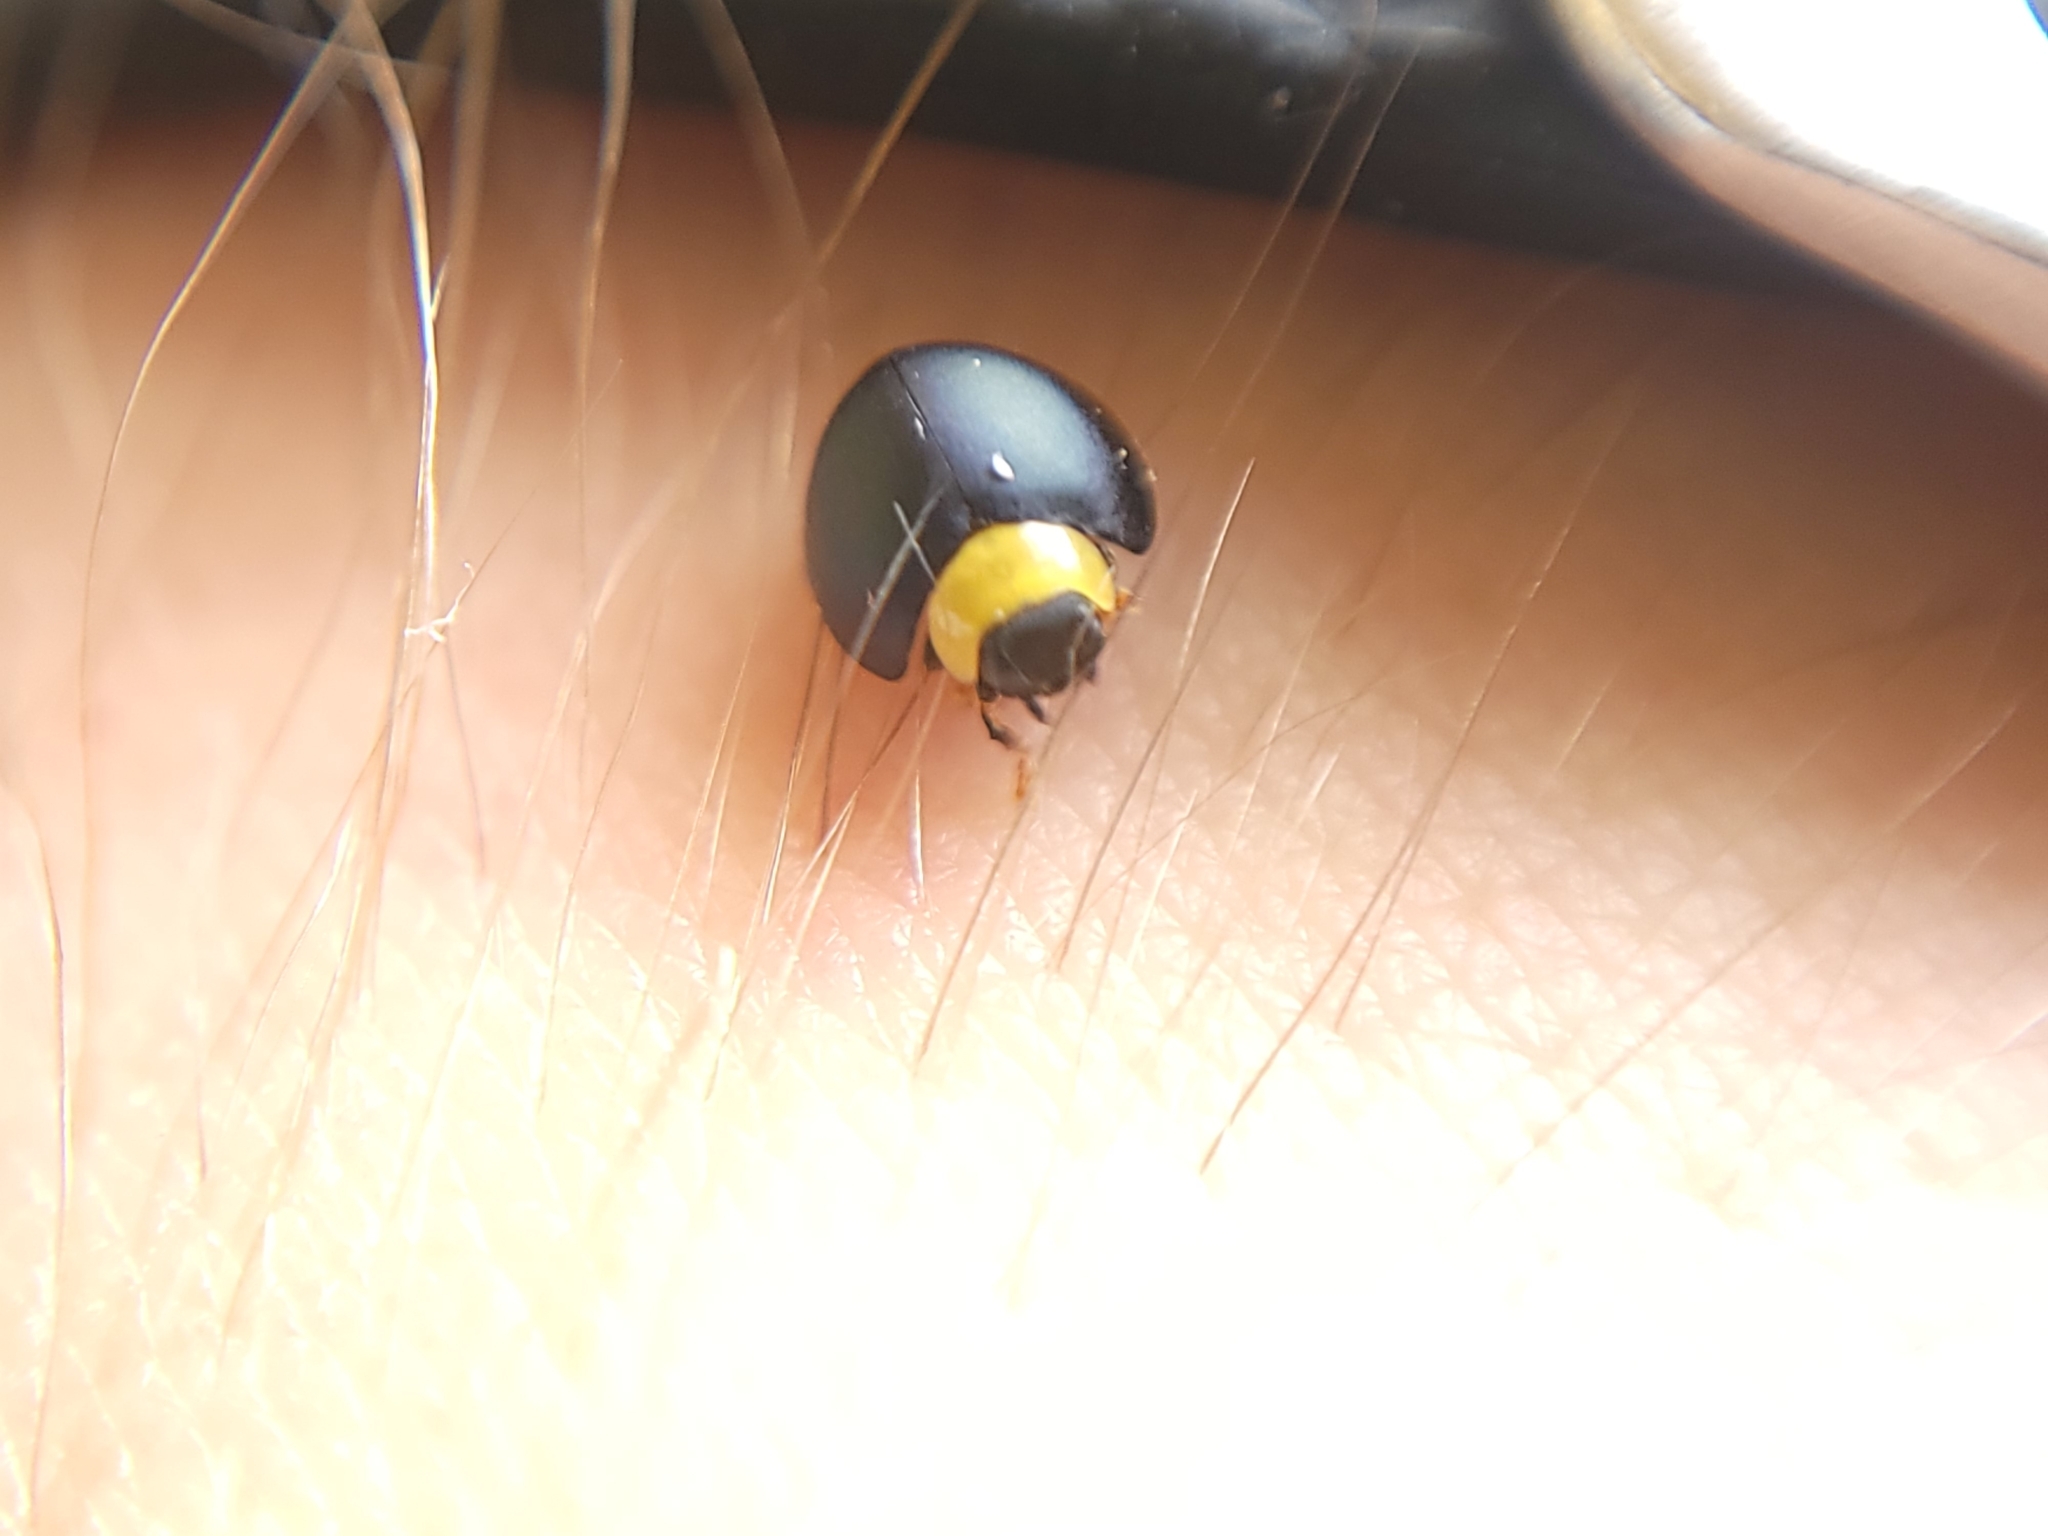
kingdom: Animalia
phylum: Arthropoda
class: Insecta
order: Coleoptera
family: Coccinellidae
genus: Egius
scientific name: Egius platycephalus
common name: Ladybird beetle
